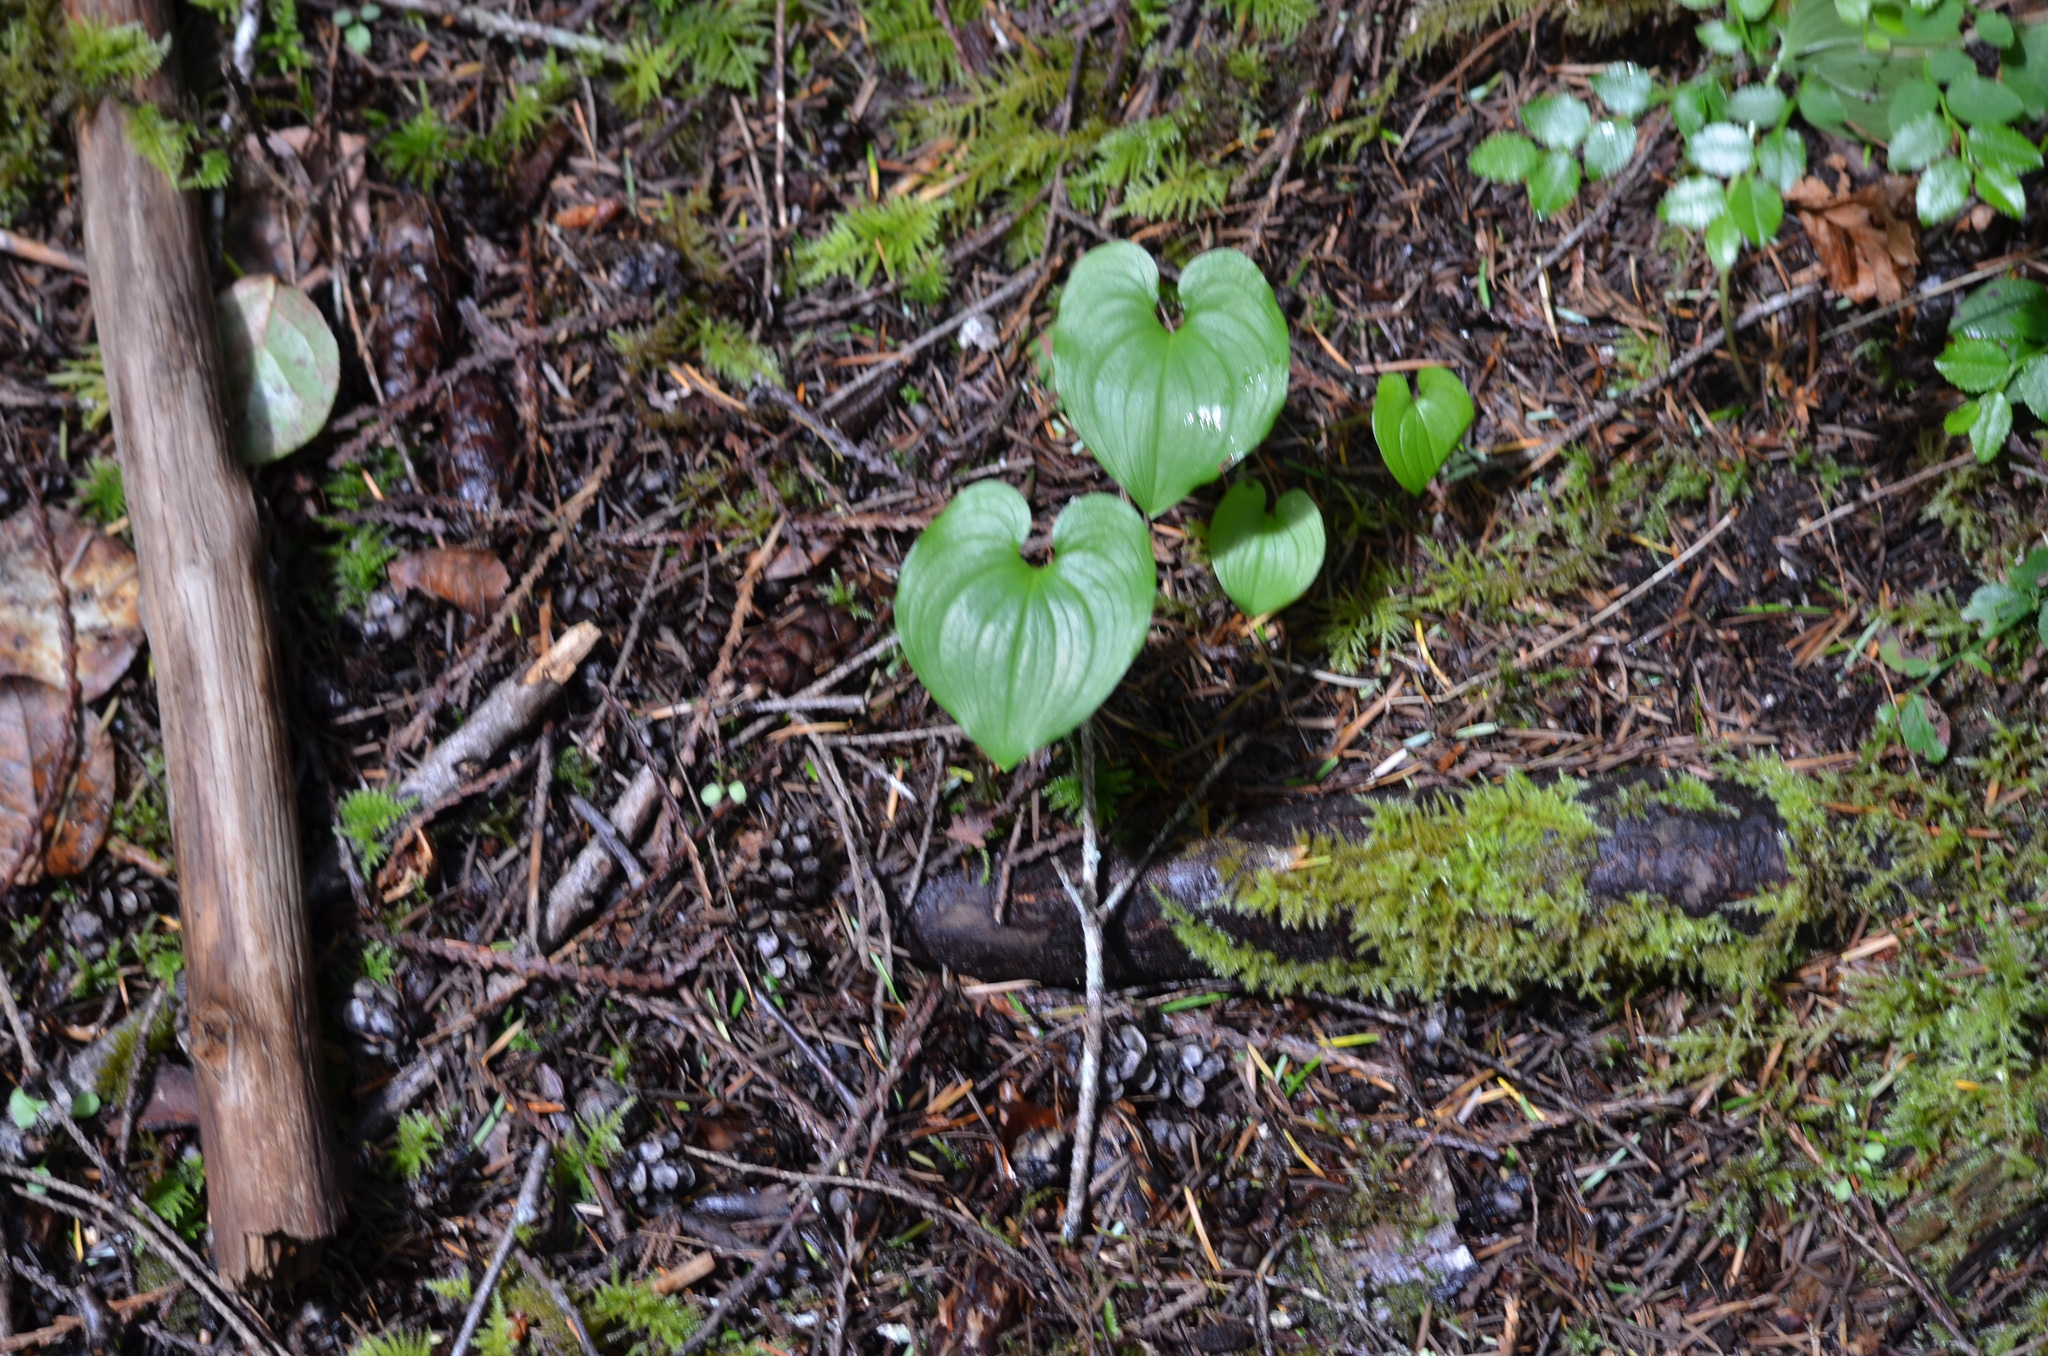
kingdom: Plantae
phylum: Tracheophyta
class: Liliopsida
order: Asparagales
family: Asparagaceae
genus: Maianthemum
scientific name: Maianthemum dilatatum
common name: False lily-of-the-valley
